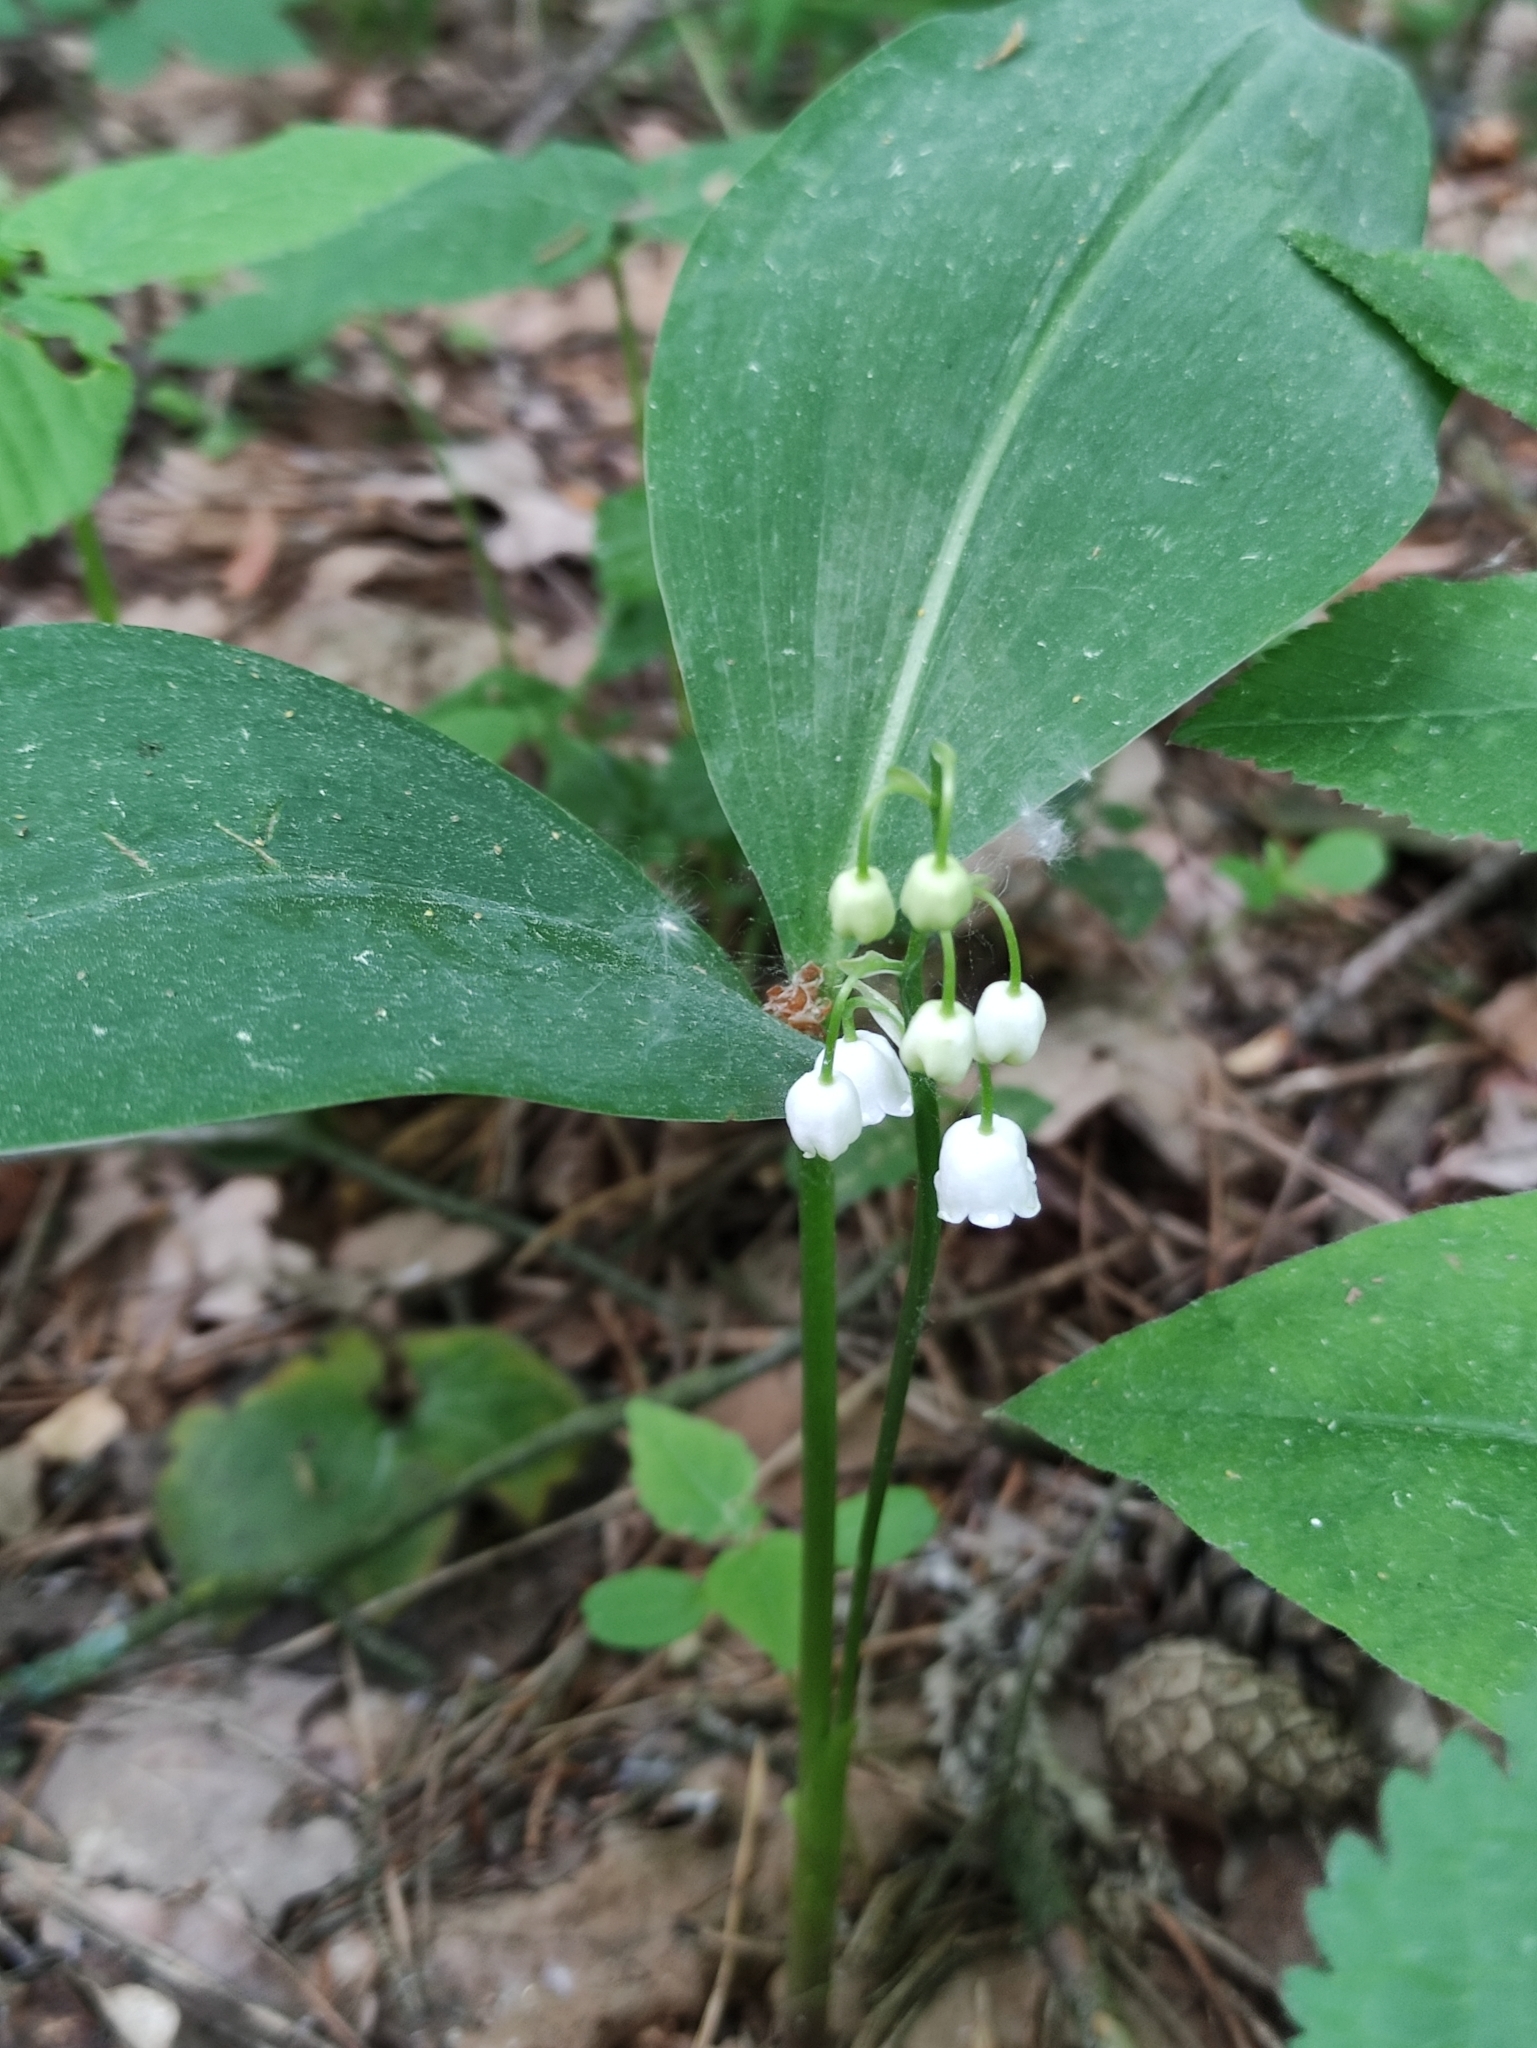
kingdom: Plantae
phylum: Tracheophyta
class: Liliopsida
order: Asparagales
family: Asparagaceae
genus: Convallaria
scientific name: Convallaria majalis
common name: Lily-of-the-valley
